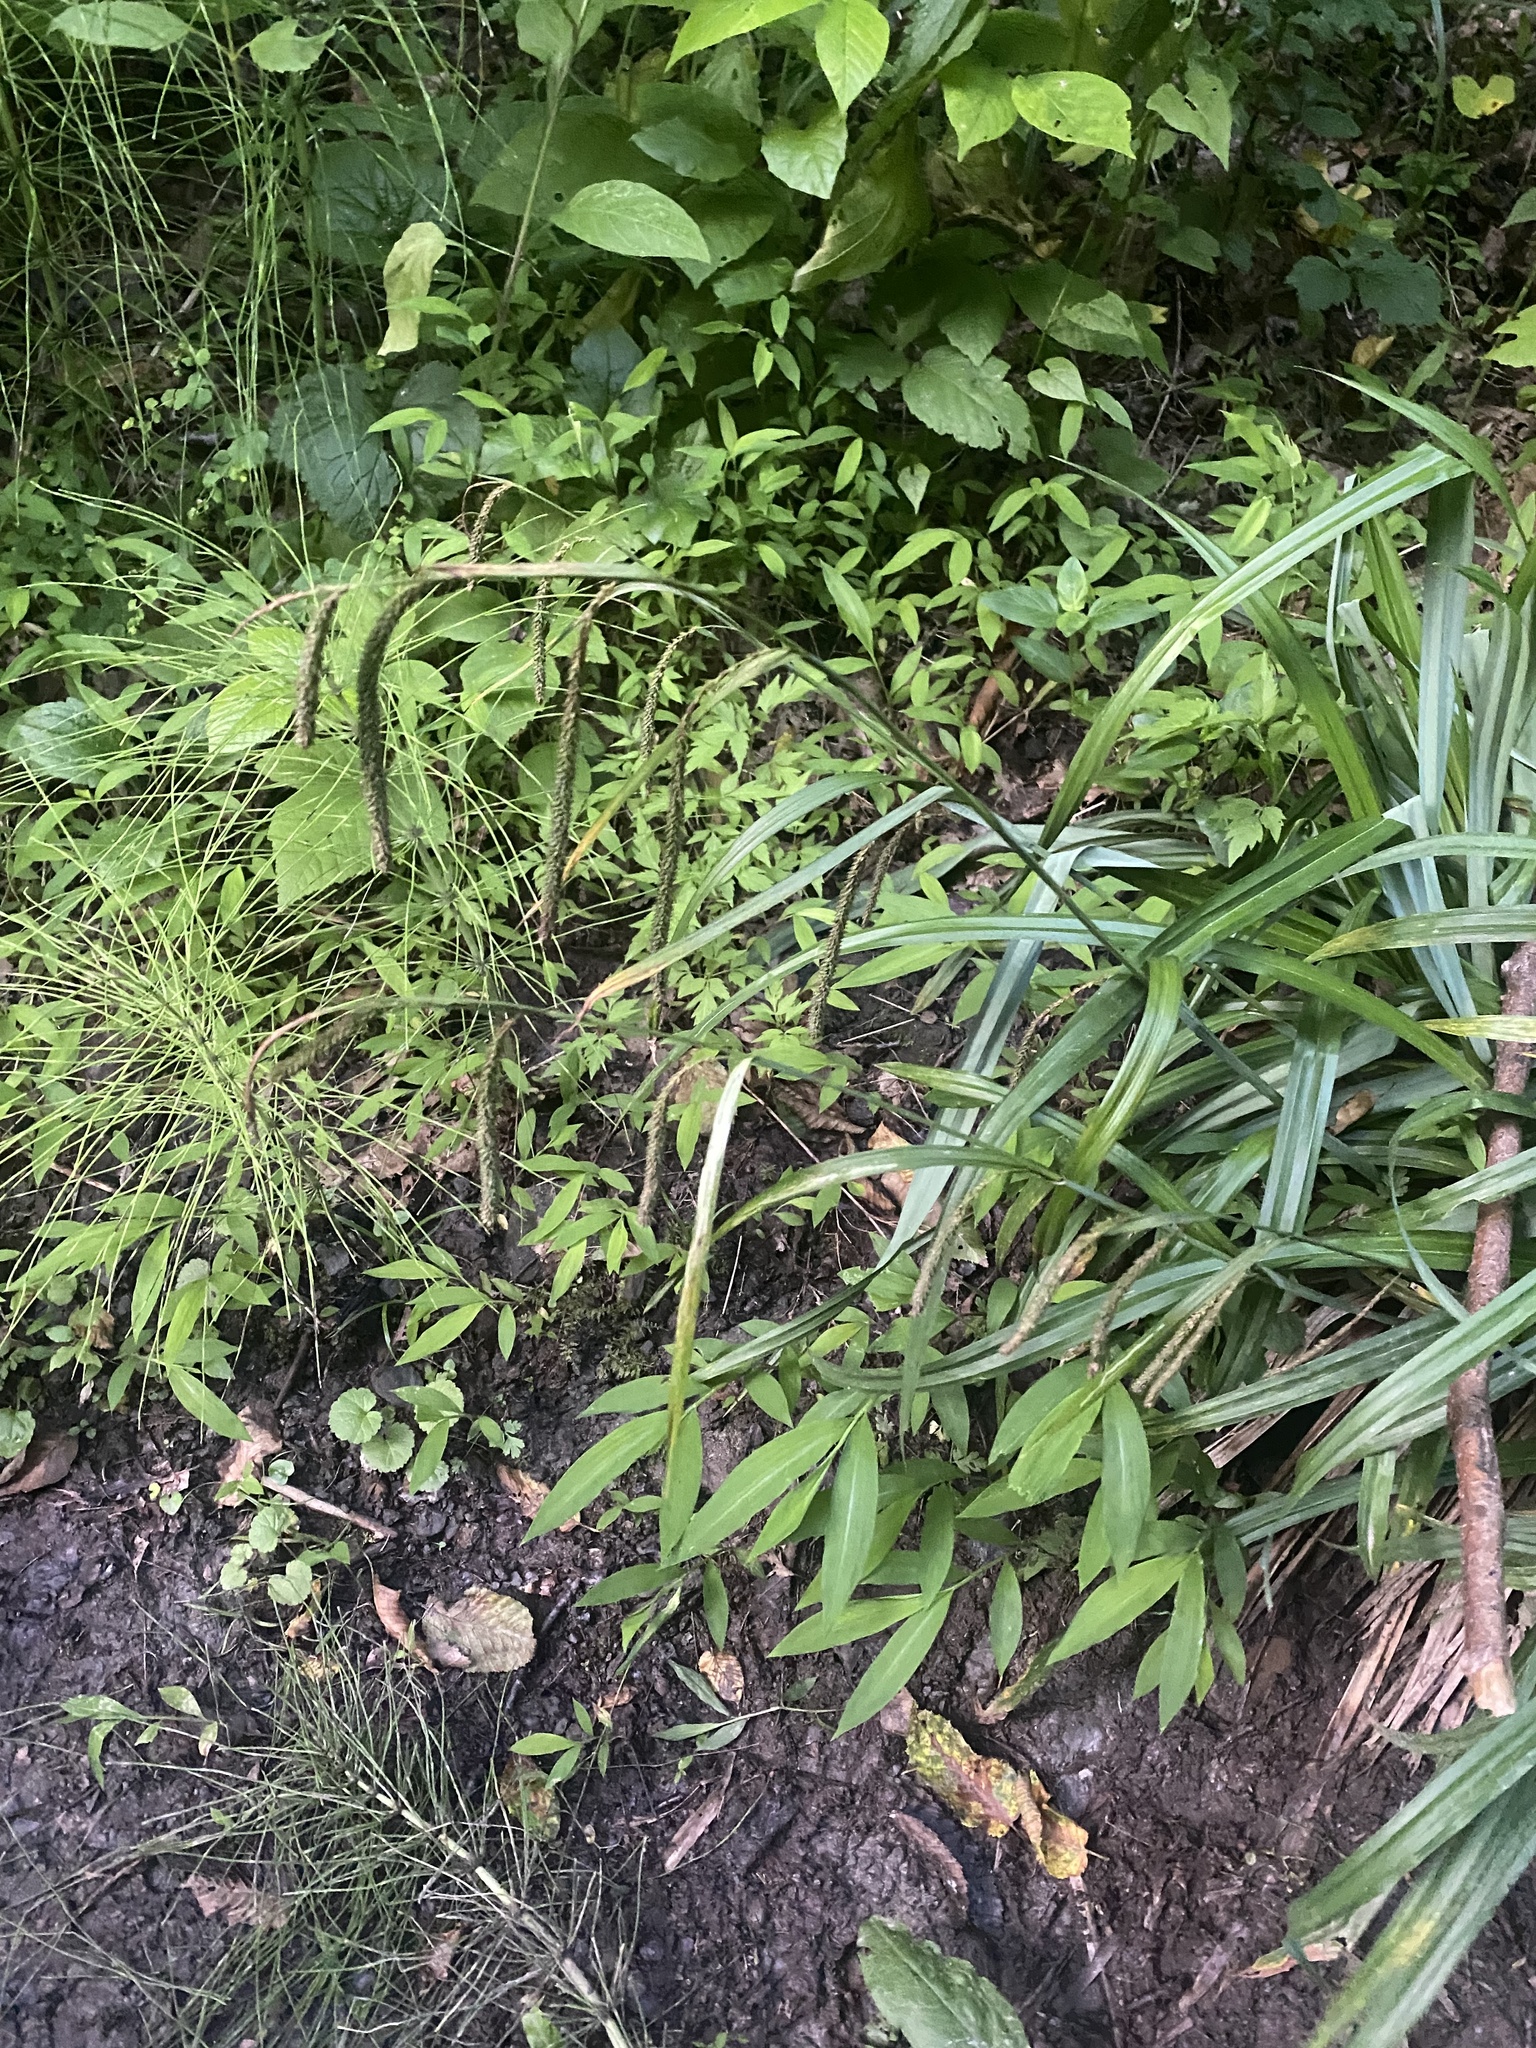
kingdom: Plantae
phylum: Tracheophyta
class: Liliopsida
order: Poales
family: Cyperaceae
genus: Carex
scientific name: Carex pendula
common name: Pendulous sedge
